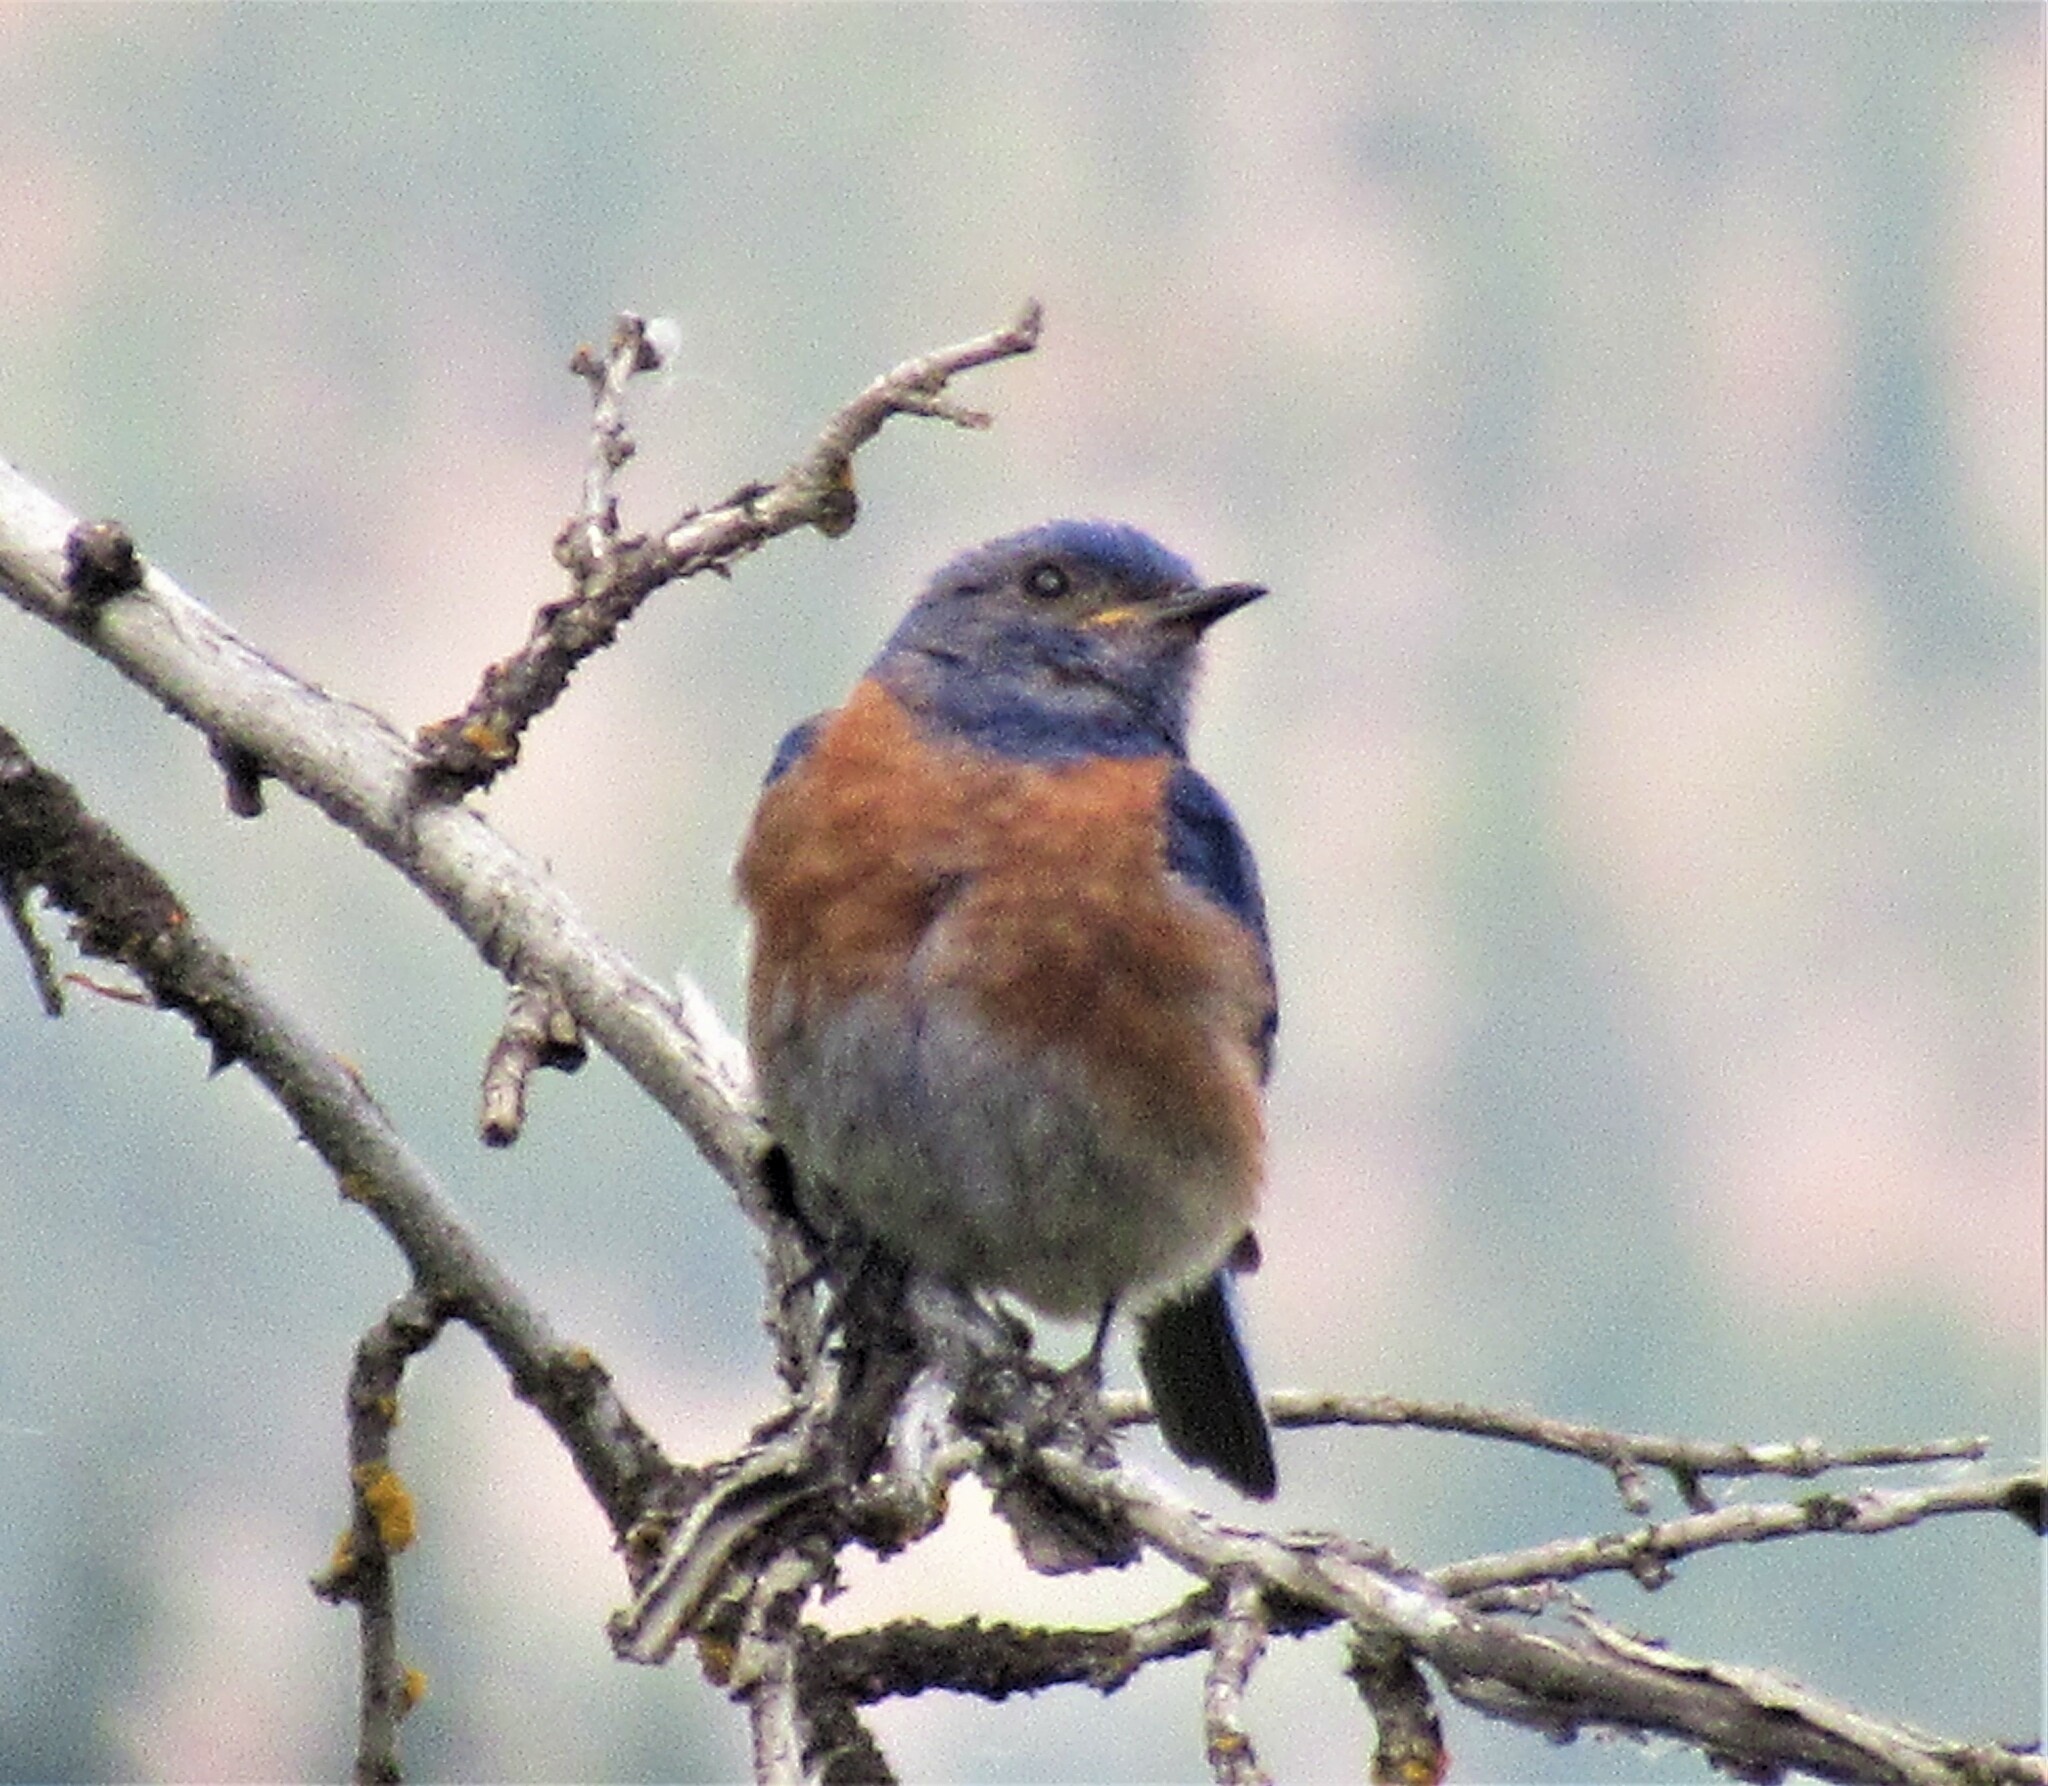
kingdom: Animalia
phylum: Chordata
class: Aves
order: Passeriformes
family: Turdidae
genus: Sialia
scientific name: Sialia mexicana
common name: Western bluebird
